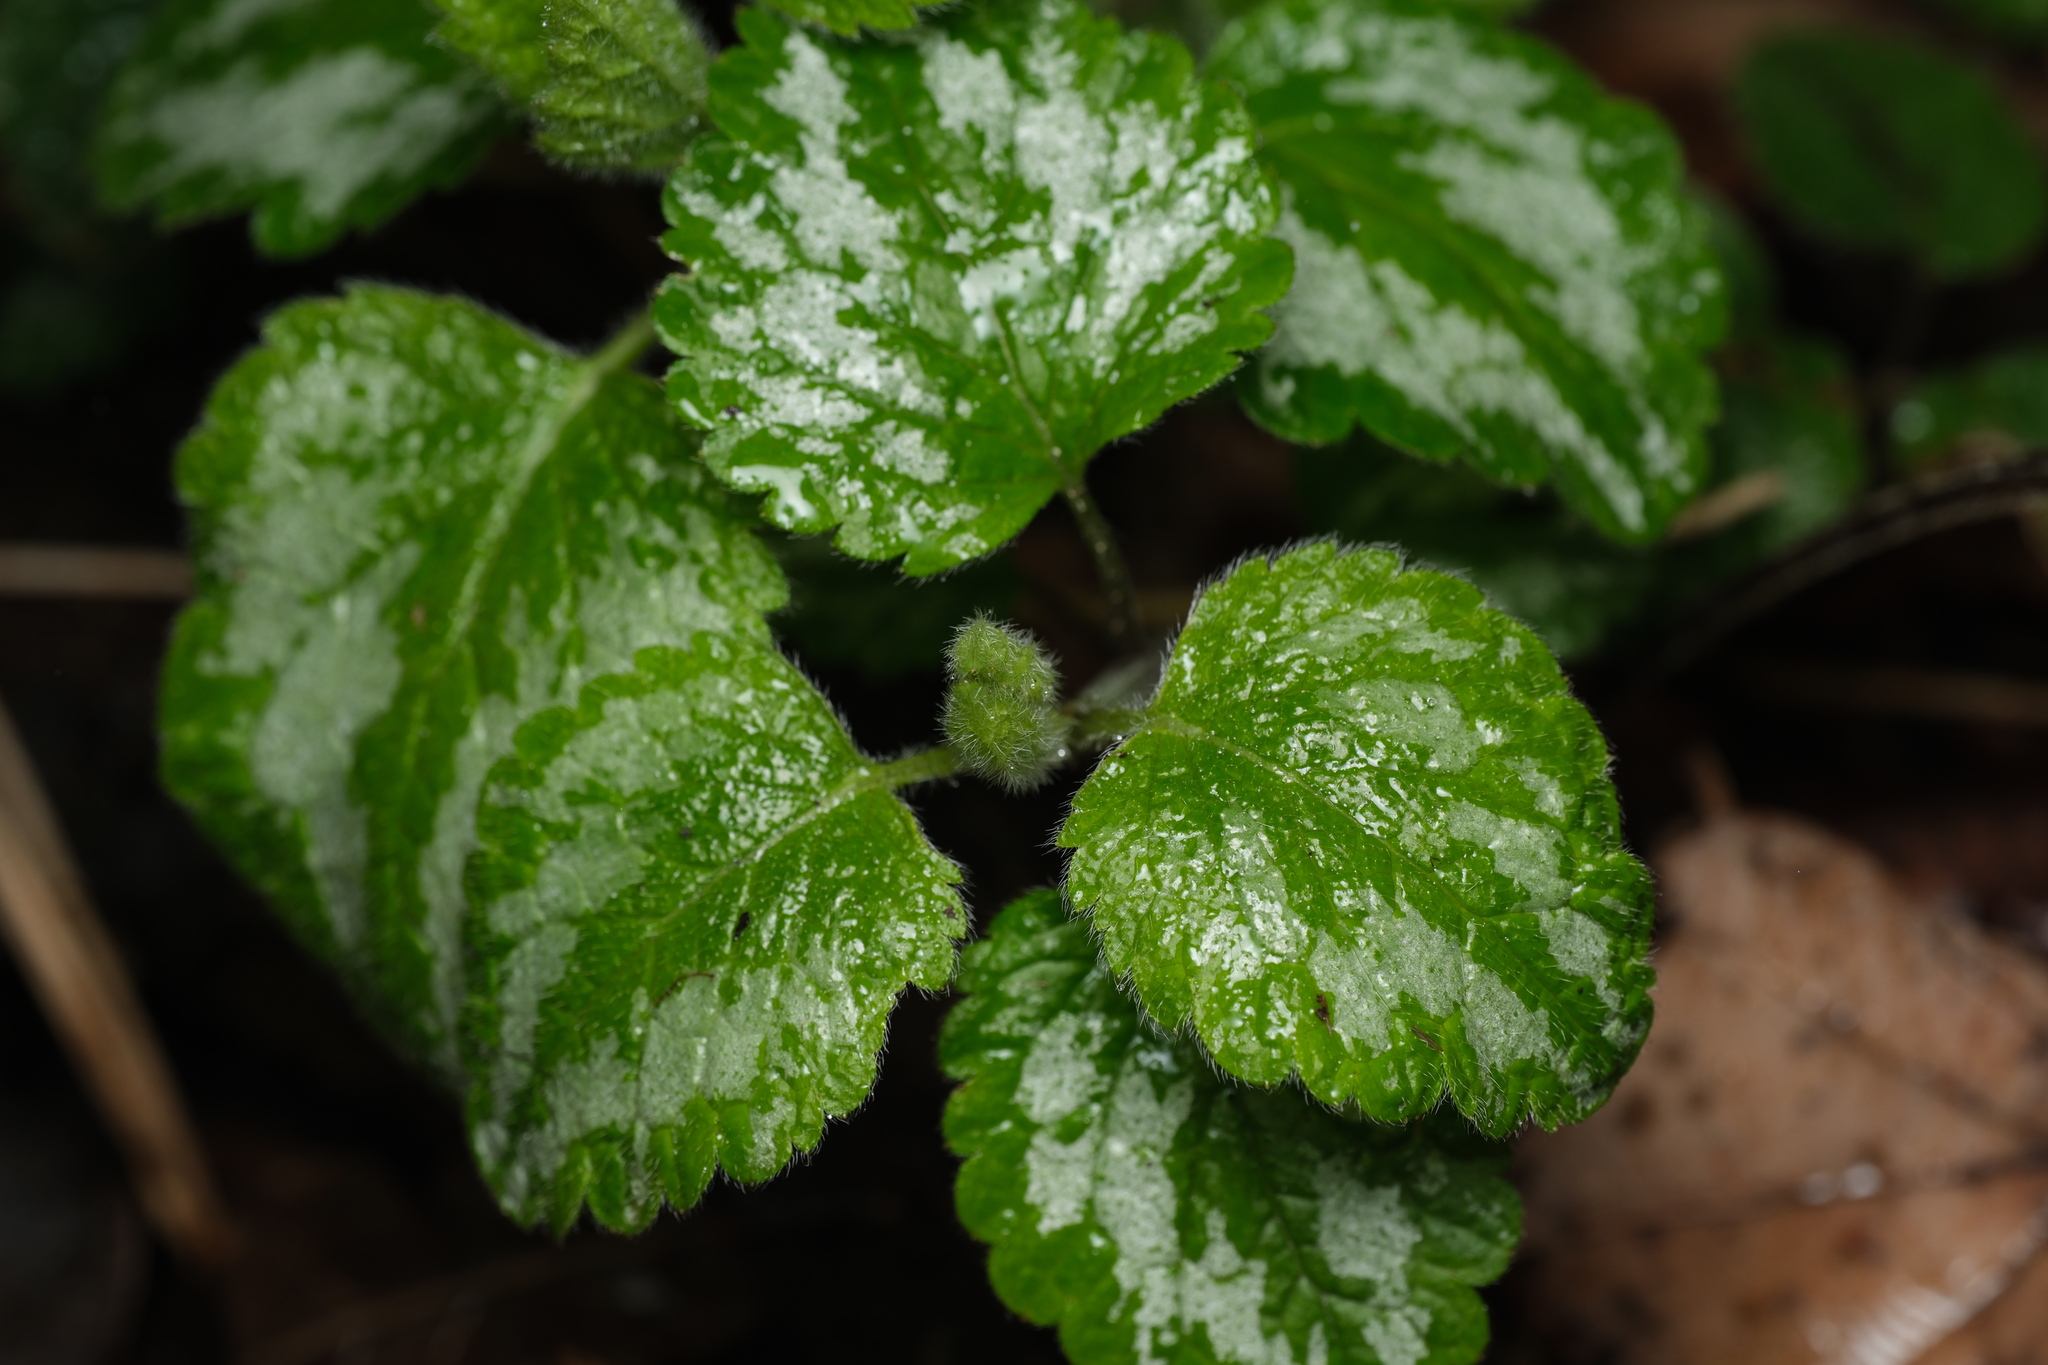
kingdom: Plantae
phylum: Tracheophyta
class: Magnoliopsida
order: Lamiales
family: Lamiaceae
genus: Lamium
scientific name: Lamium galeobdolon
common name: Yellow archangel
